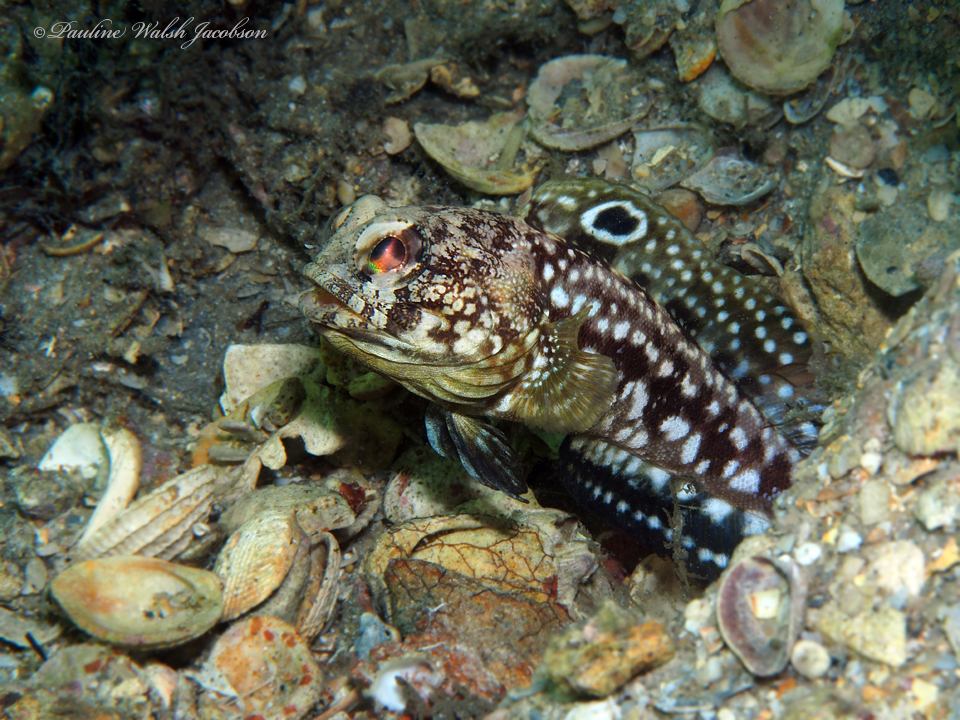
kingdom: Animalia
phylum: Chordata
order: Perciformes
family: Opistognathidae
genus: Opistognathus
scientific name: Opistognathus robinsi
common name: Spotfin jawfish
